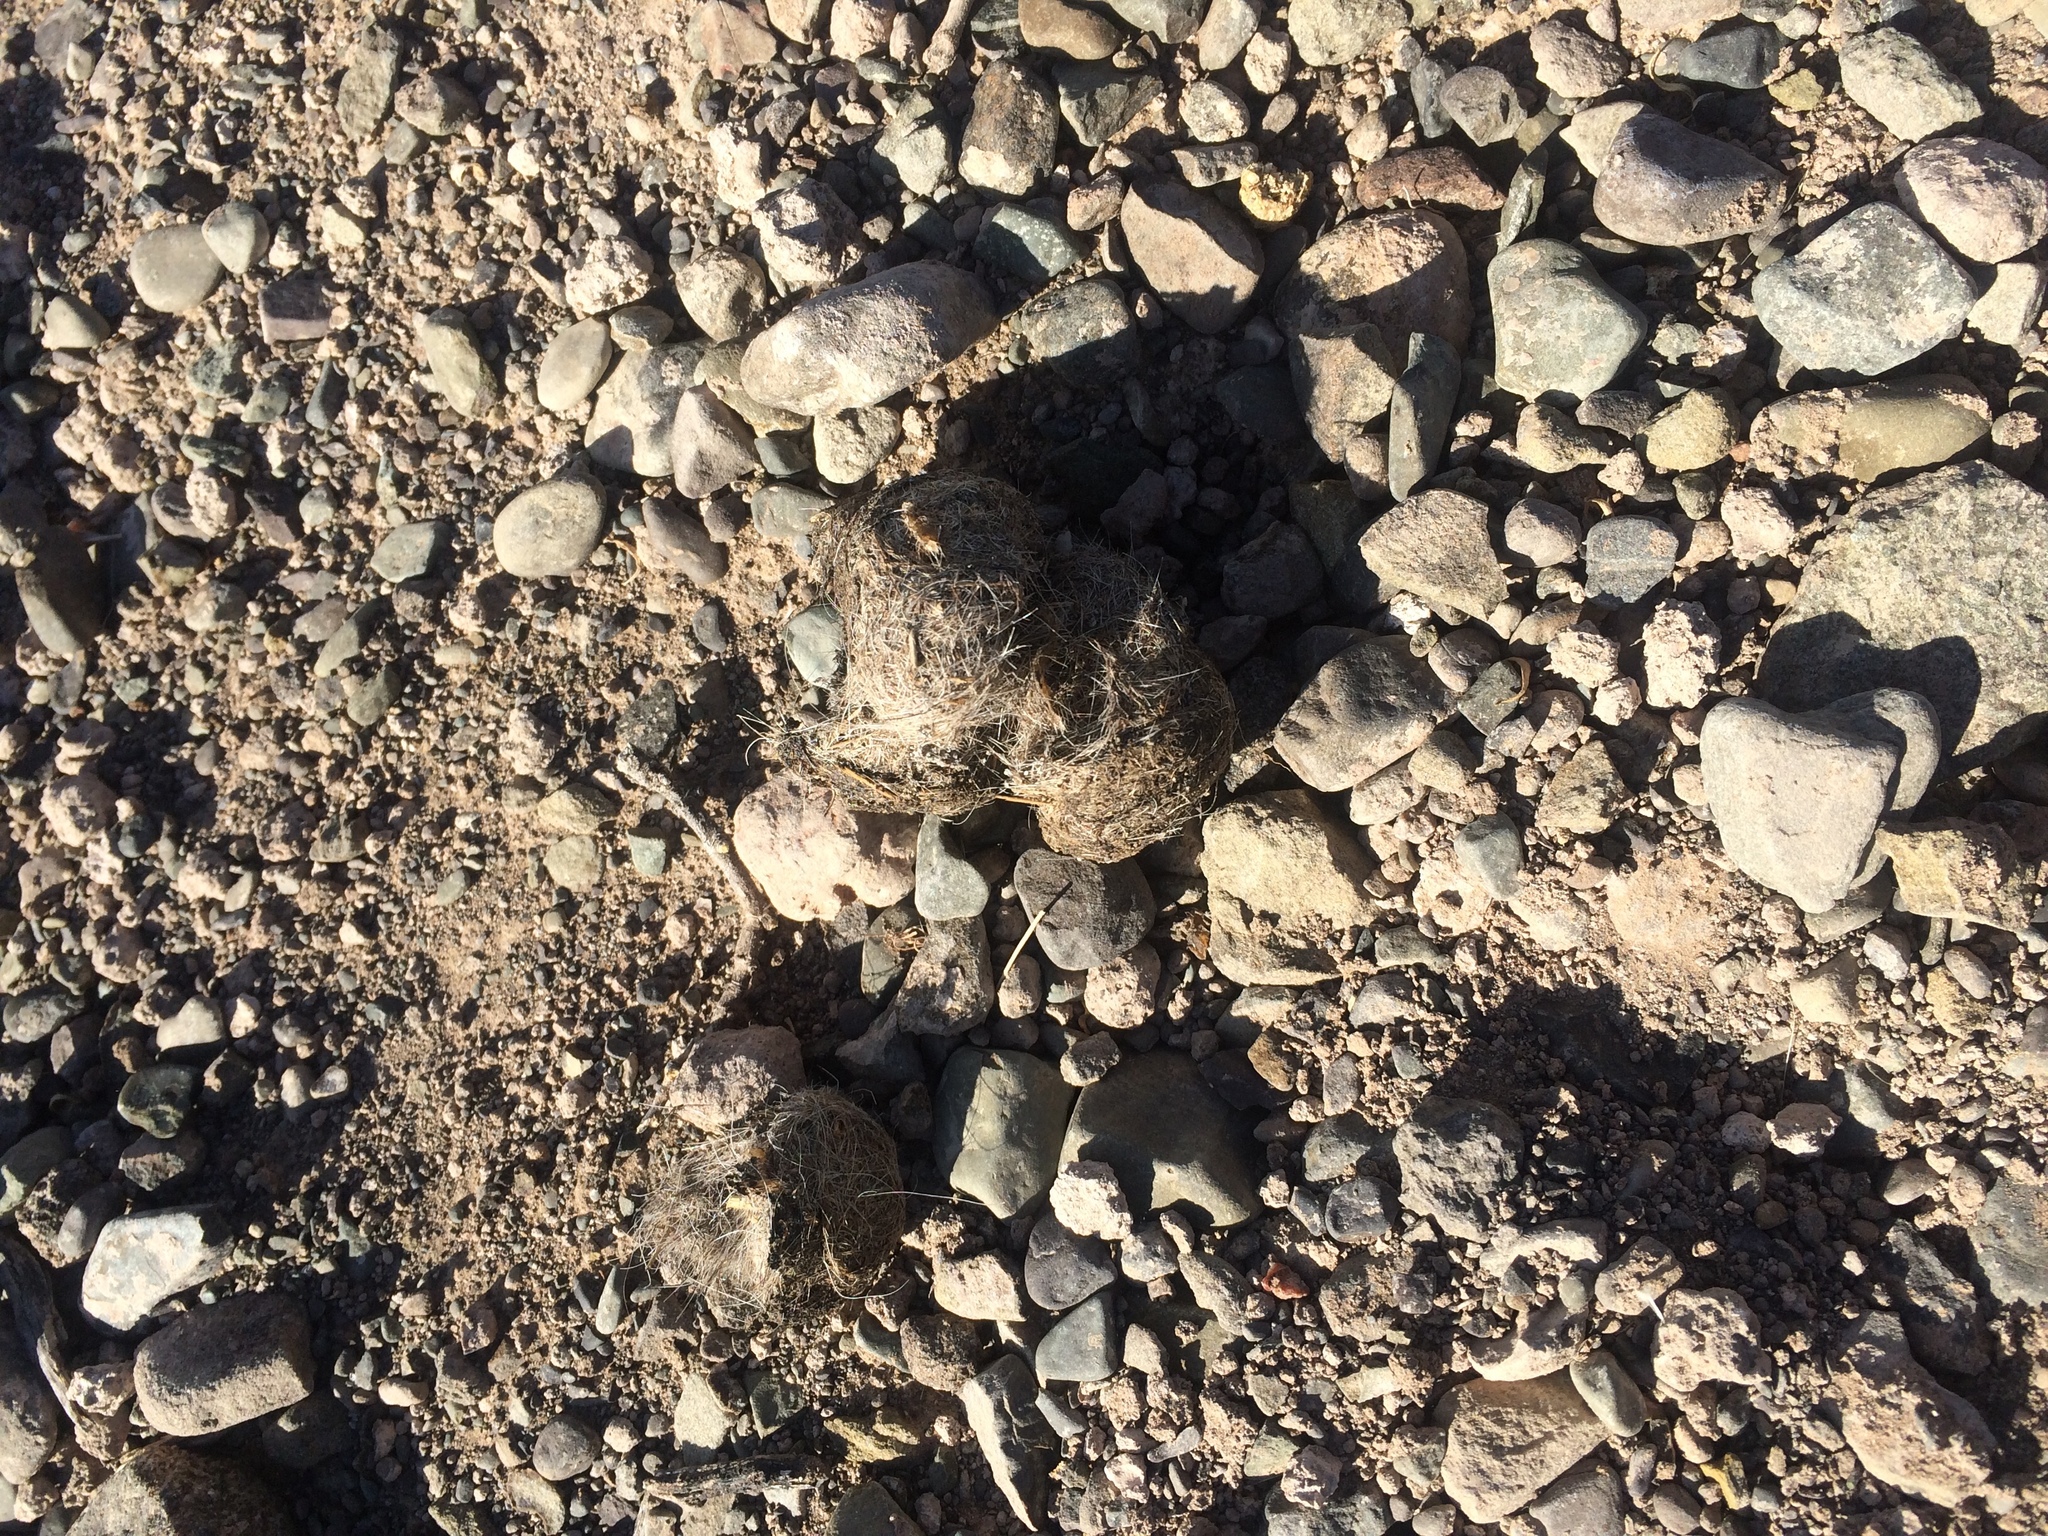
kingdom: Animalia
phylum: Chordata
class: Mammalia
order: Carnivora
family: Felidae
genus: Panthera
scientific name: Panthera leo
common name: Lion
